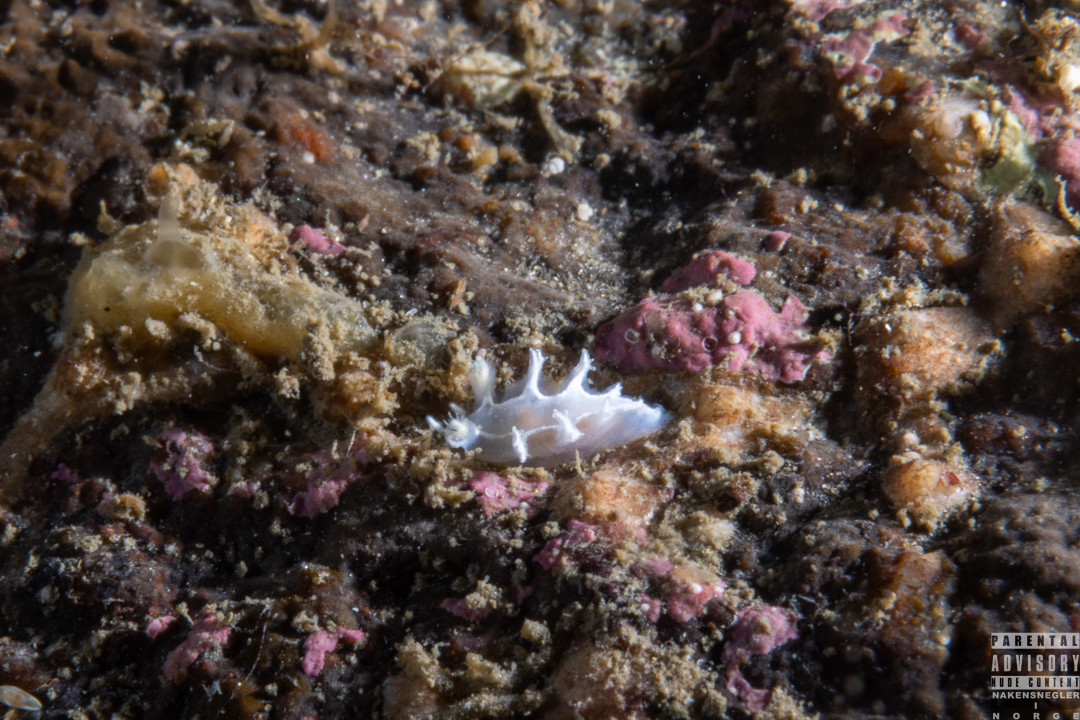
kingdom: Animalia
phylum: Mollusca
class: Gastropoda
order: Nudibranchia
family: Tritoniidae
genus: Duvaucelia
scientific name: Duvaucelia lineata
